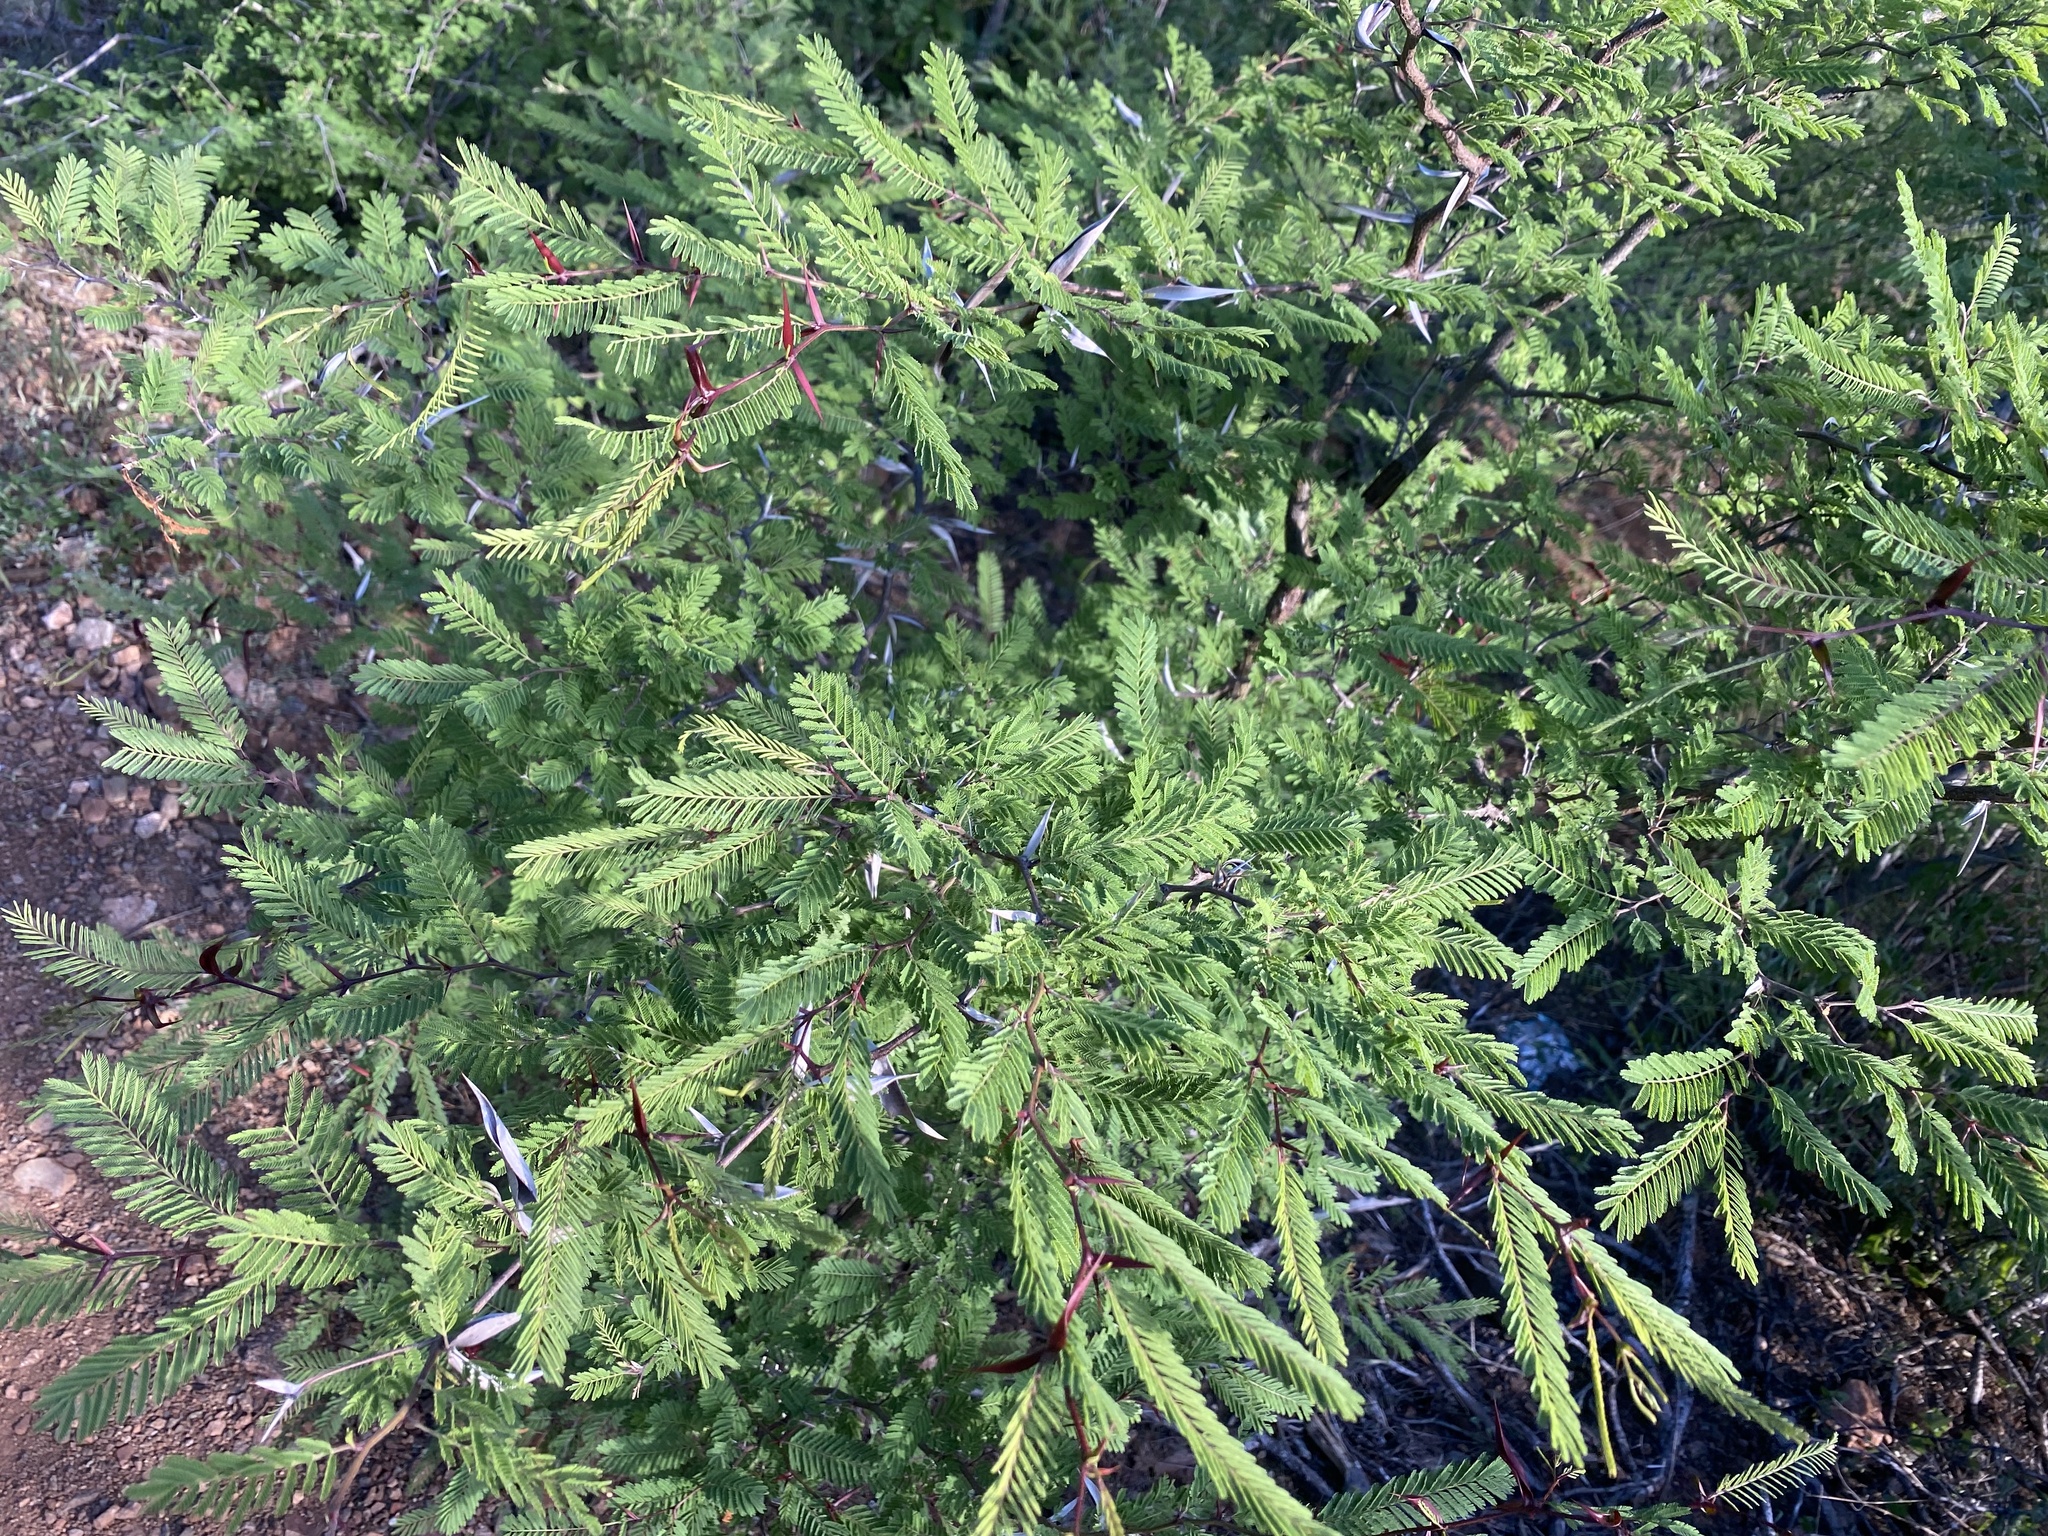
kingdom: Plantae
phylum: Tracheophyta
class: Magnoliopsida
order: Fabales
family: Fabaceae
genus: Vachellia
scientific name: Vachellia campechiana
